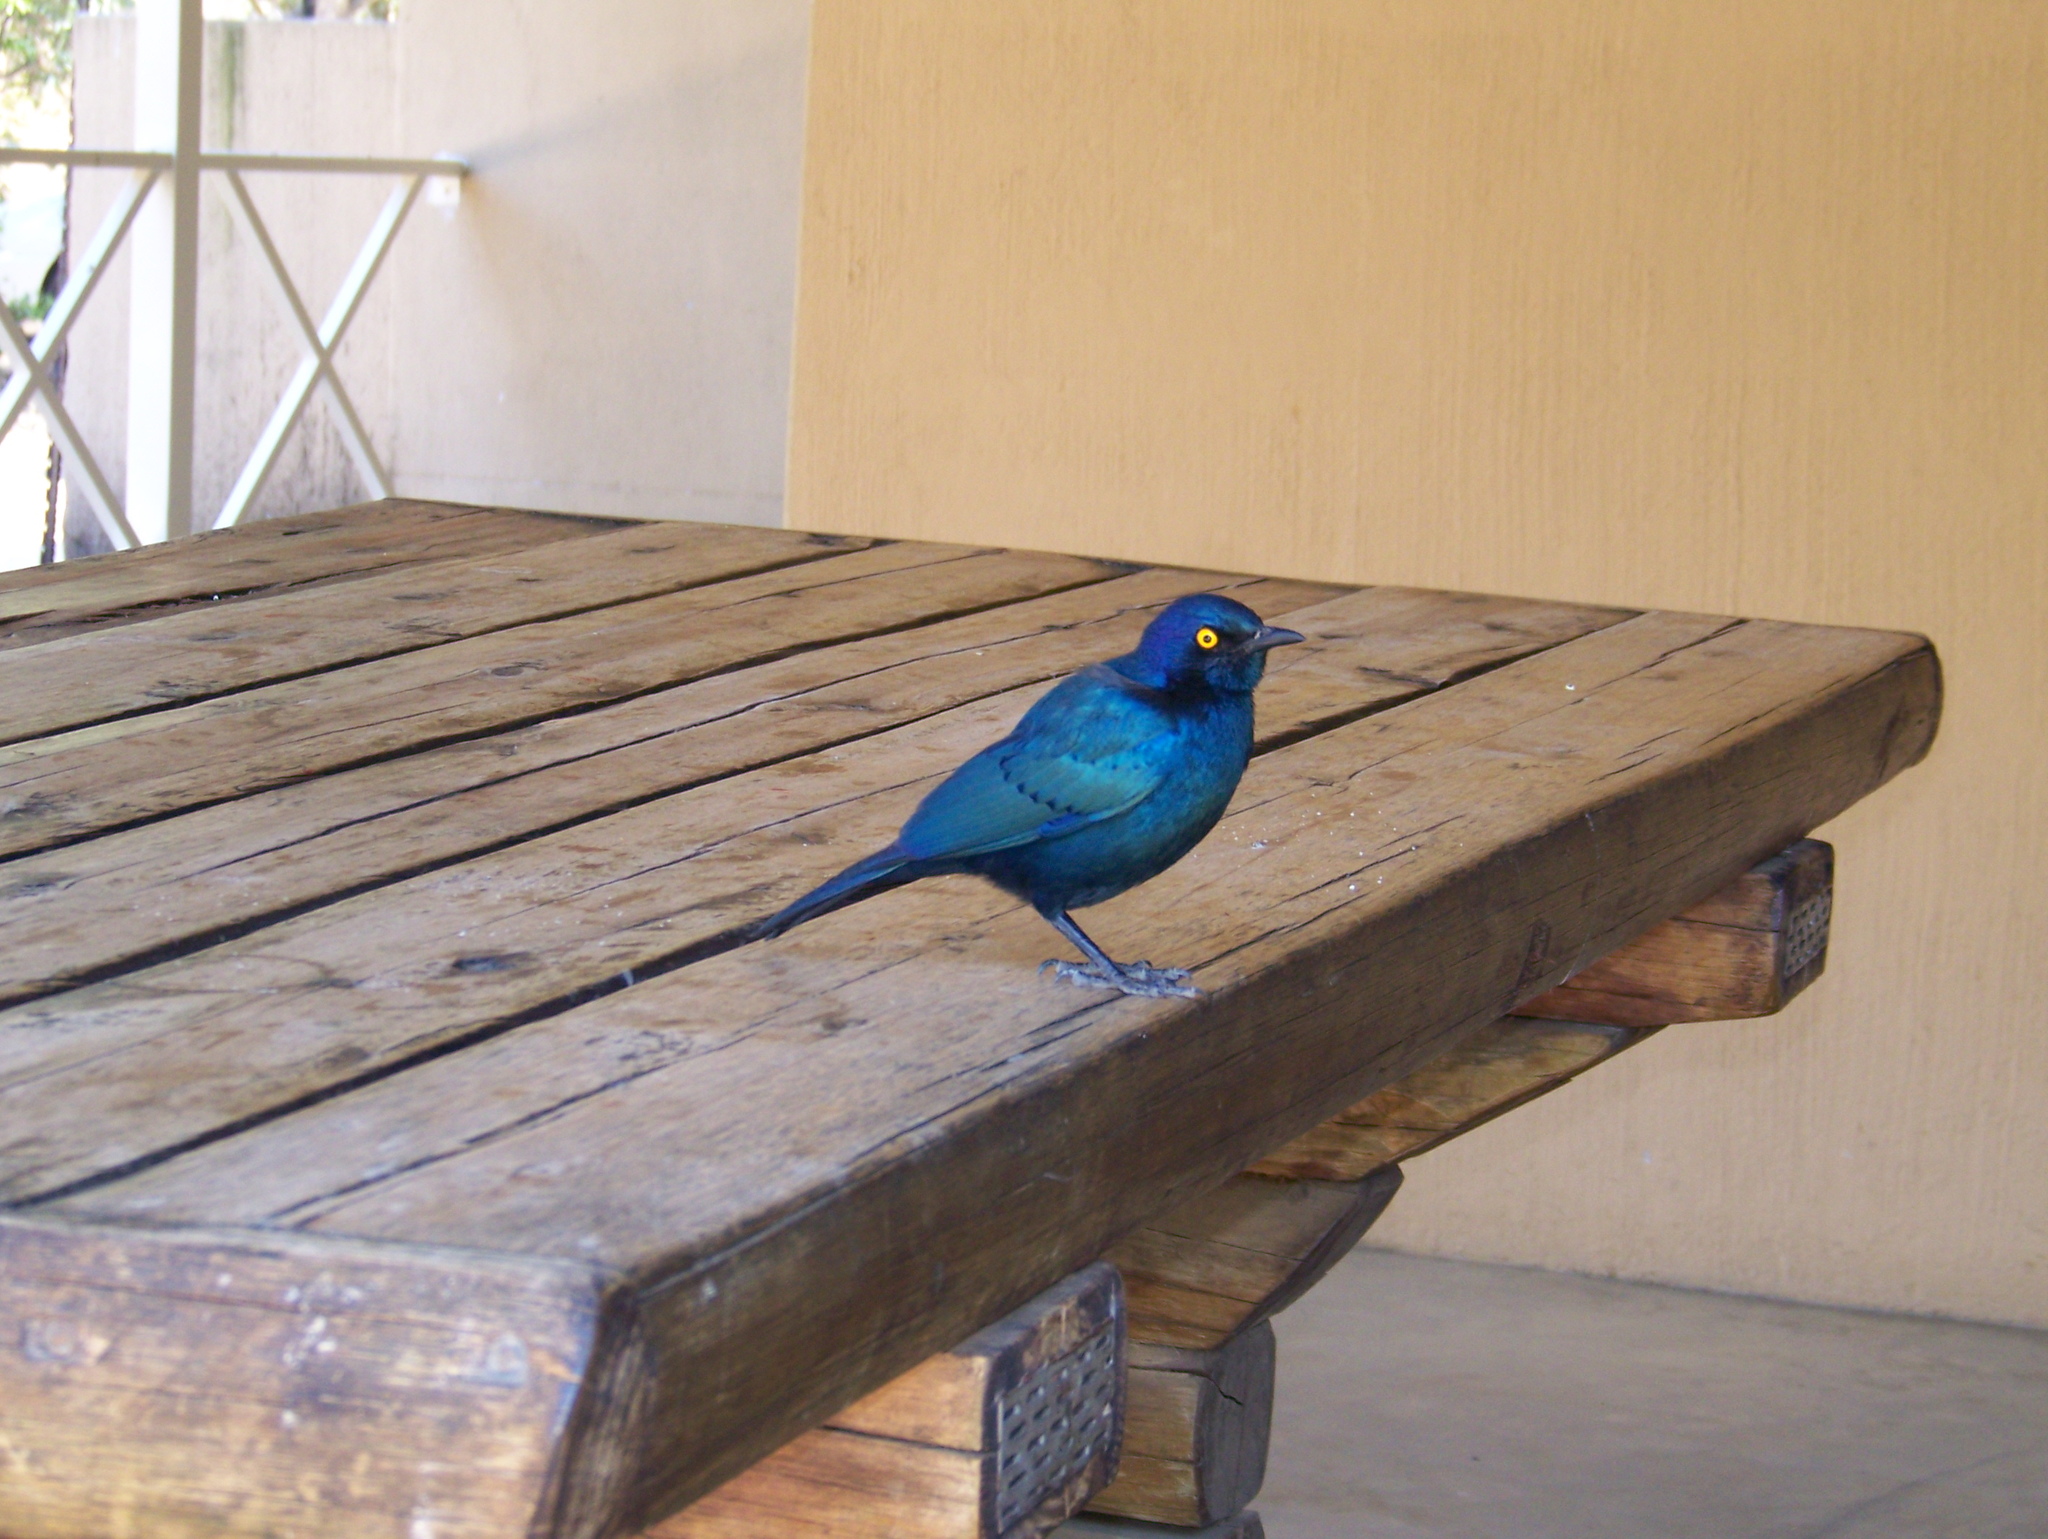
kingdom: Animalia
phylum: Chordata
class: Aves
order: Passeriformes
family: Sturnidae
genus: Lamprotornis
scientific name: Lamprotornis nitens
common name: Cape starling
